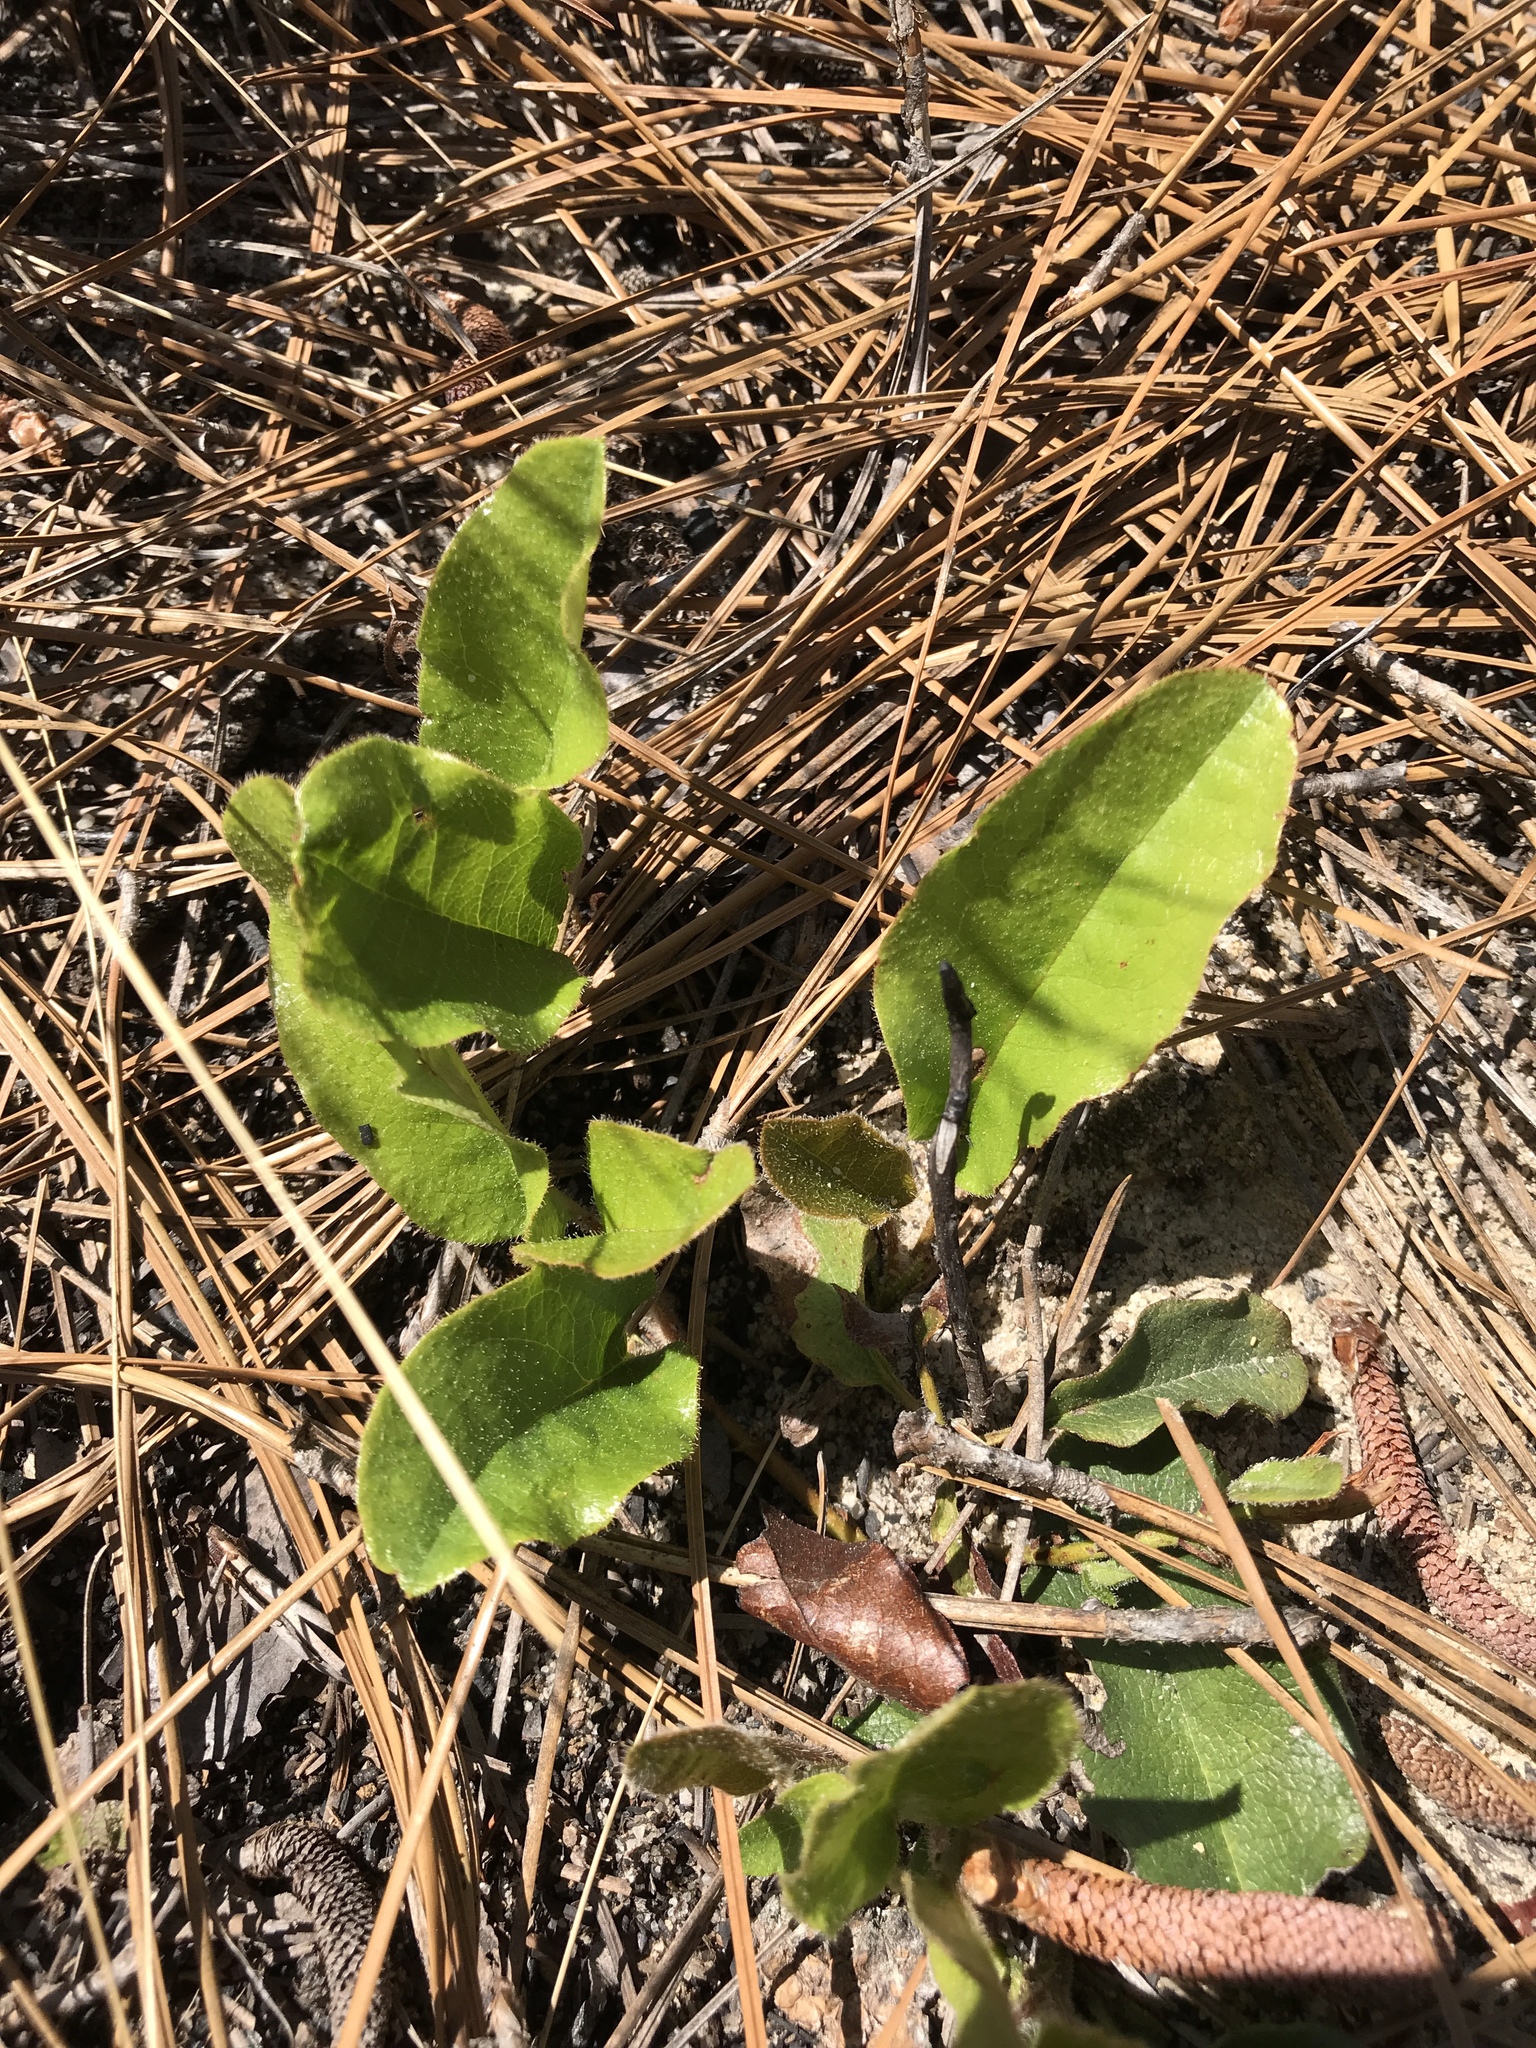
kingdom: Plantae
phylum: Tracheophyta
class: Magnoliopsida
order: Ericales
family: Ericaceae
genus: Epigaea
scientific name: Epigaea repens
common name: Gravelroot
